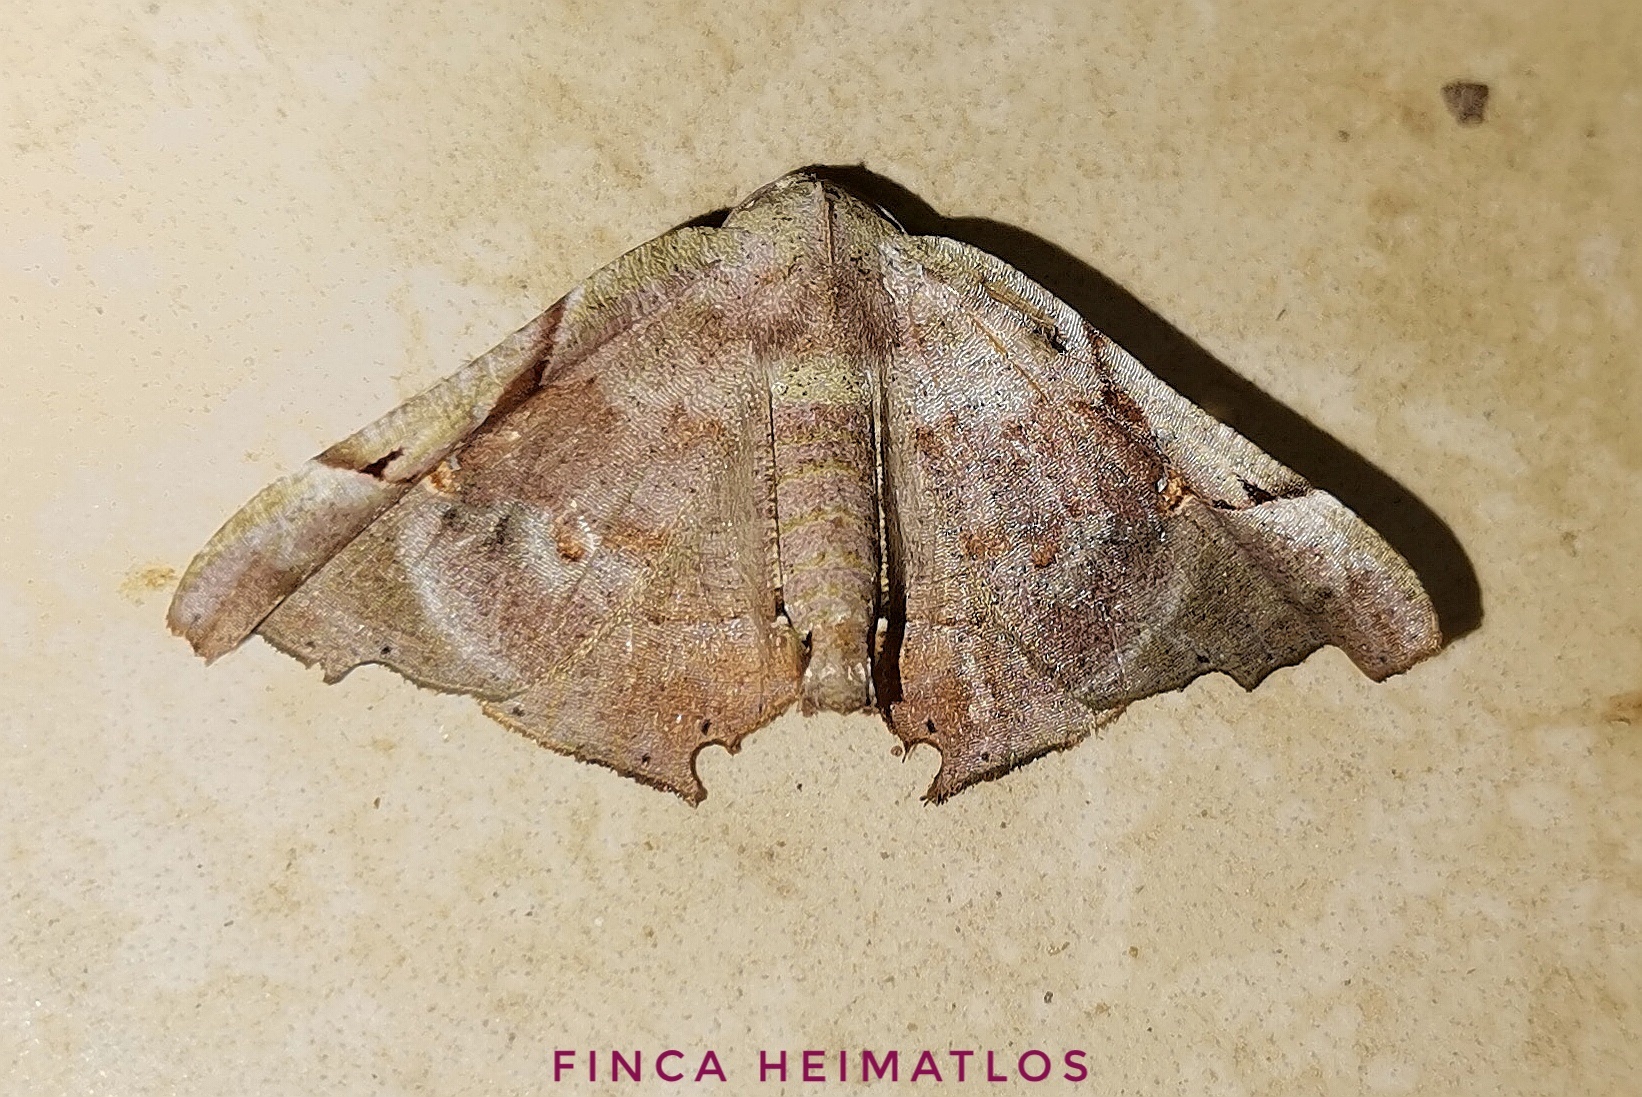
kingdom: Animalia
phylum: Arthropoda
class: Insecta
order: Lepidoptera
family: Geometridae
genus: Pero
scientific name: Pero incisa
